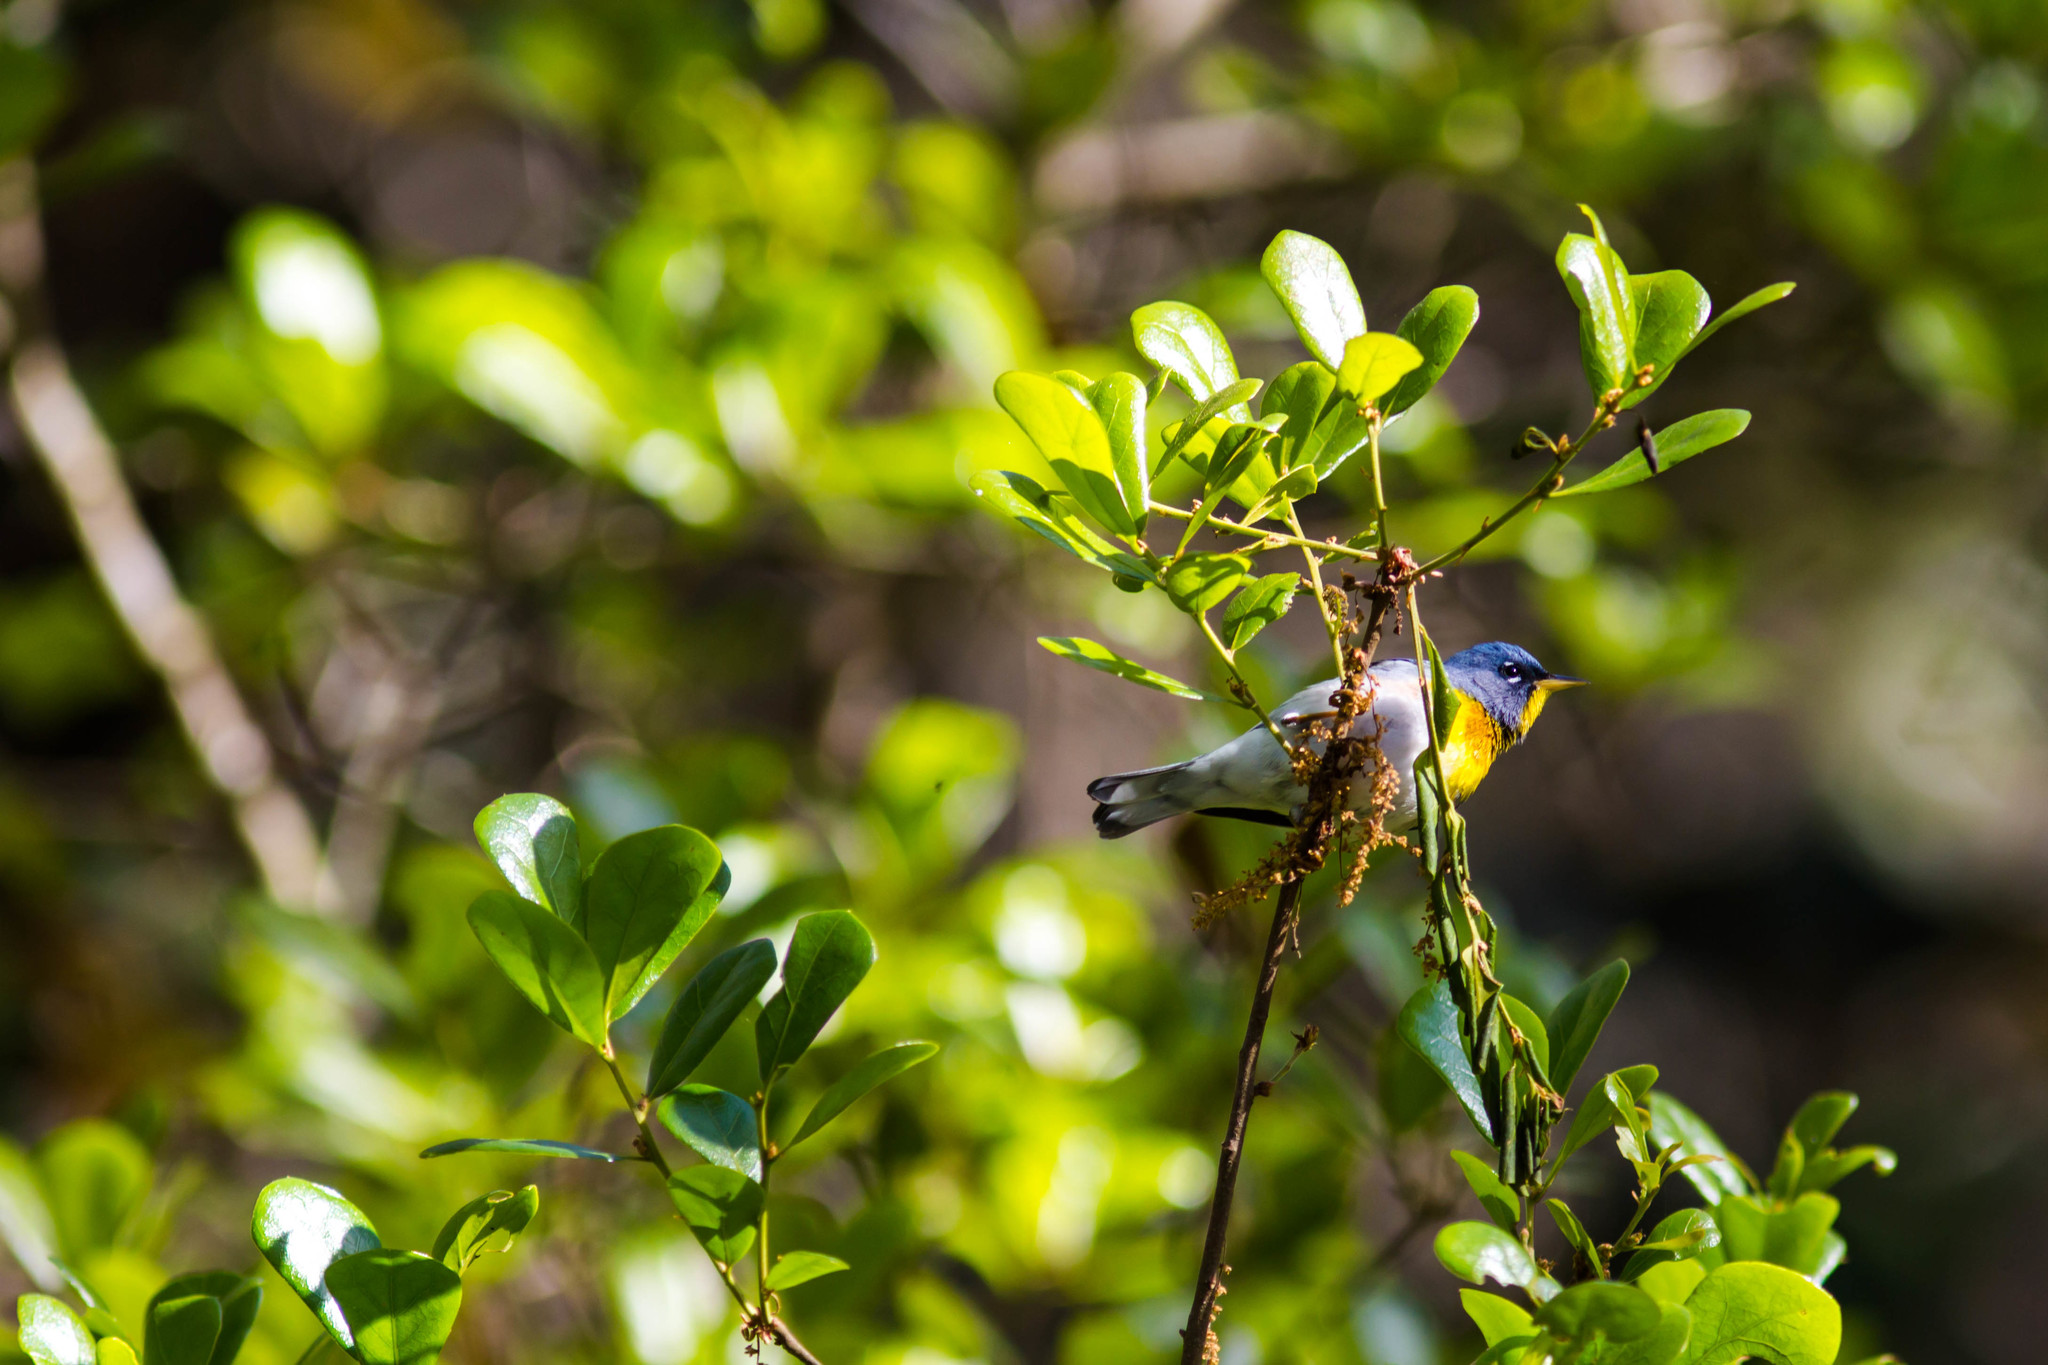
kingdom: Animalia
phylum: Chordata
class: Aves
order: Passeriformes
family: Parulidae
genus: Setophaga
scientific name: Setophaga americana
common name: Northern parula
